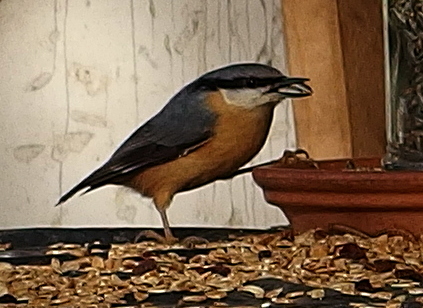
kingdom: Animalia
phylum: Chordata
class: Aves
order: Passeriformes
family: Sittidae
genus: Sitta
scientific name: Sitta europaea
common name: Eurasian nuthatch
